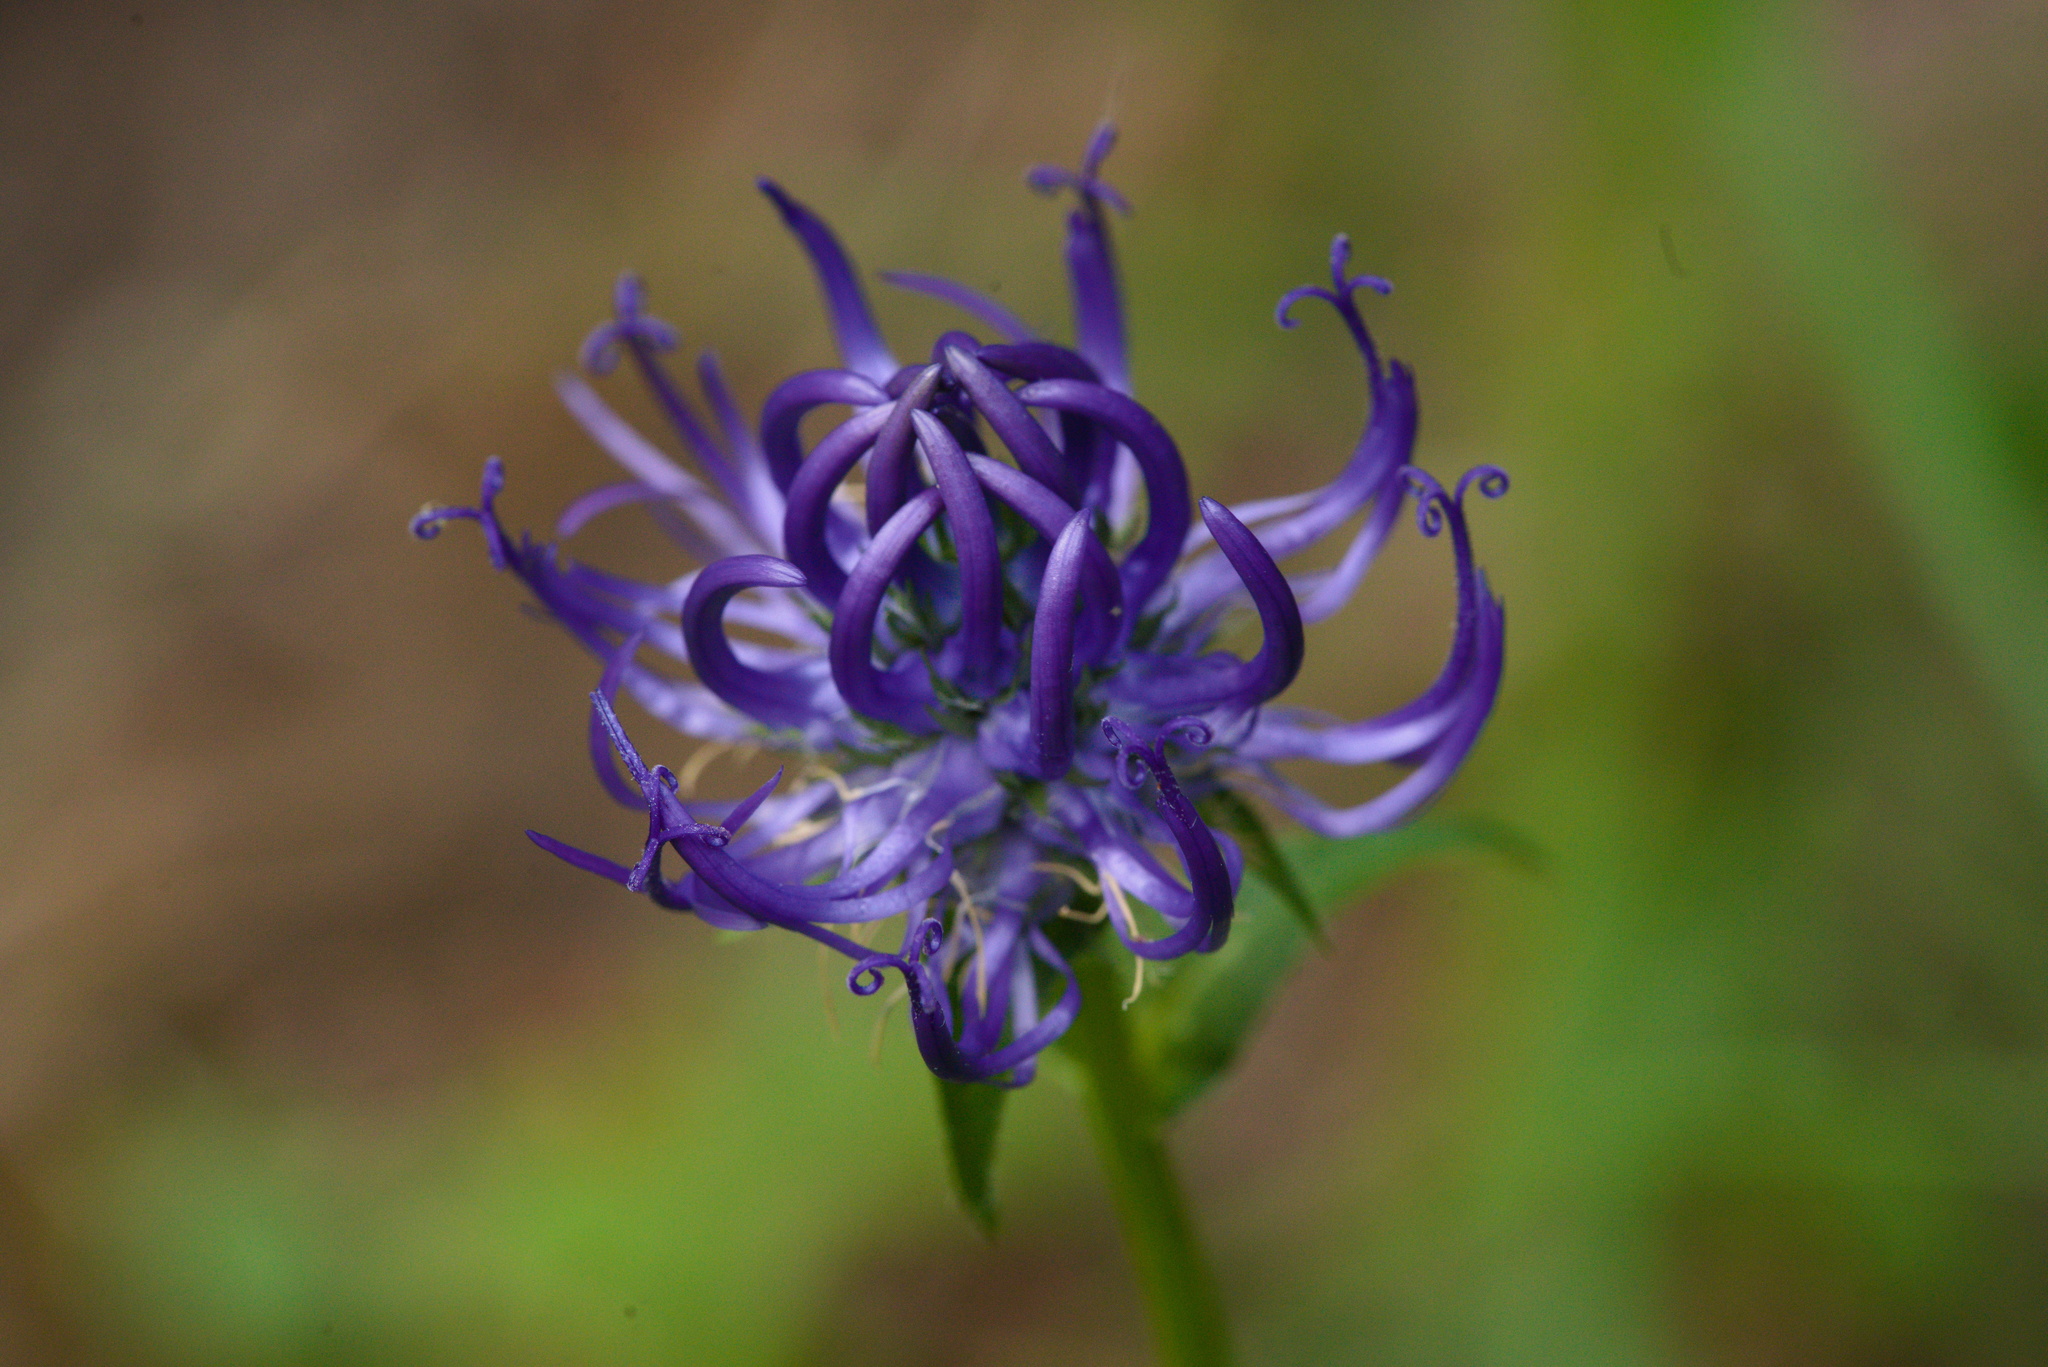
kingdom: Plantae
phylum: Tracheophyta
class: Magnoliopsida
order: Asterales
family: Campanulaceae
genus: Phyteuma
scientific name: Phyteuma orbiculare
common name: Round-headed rampion
